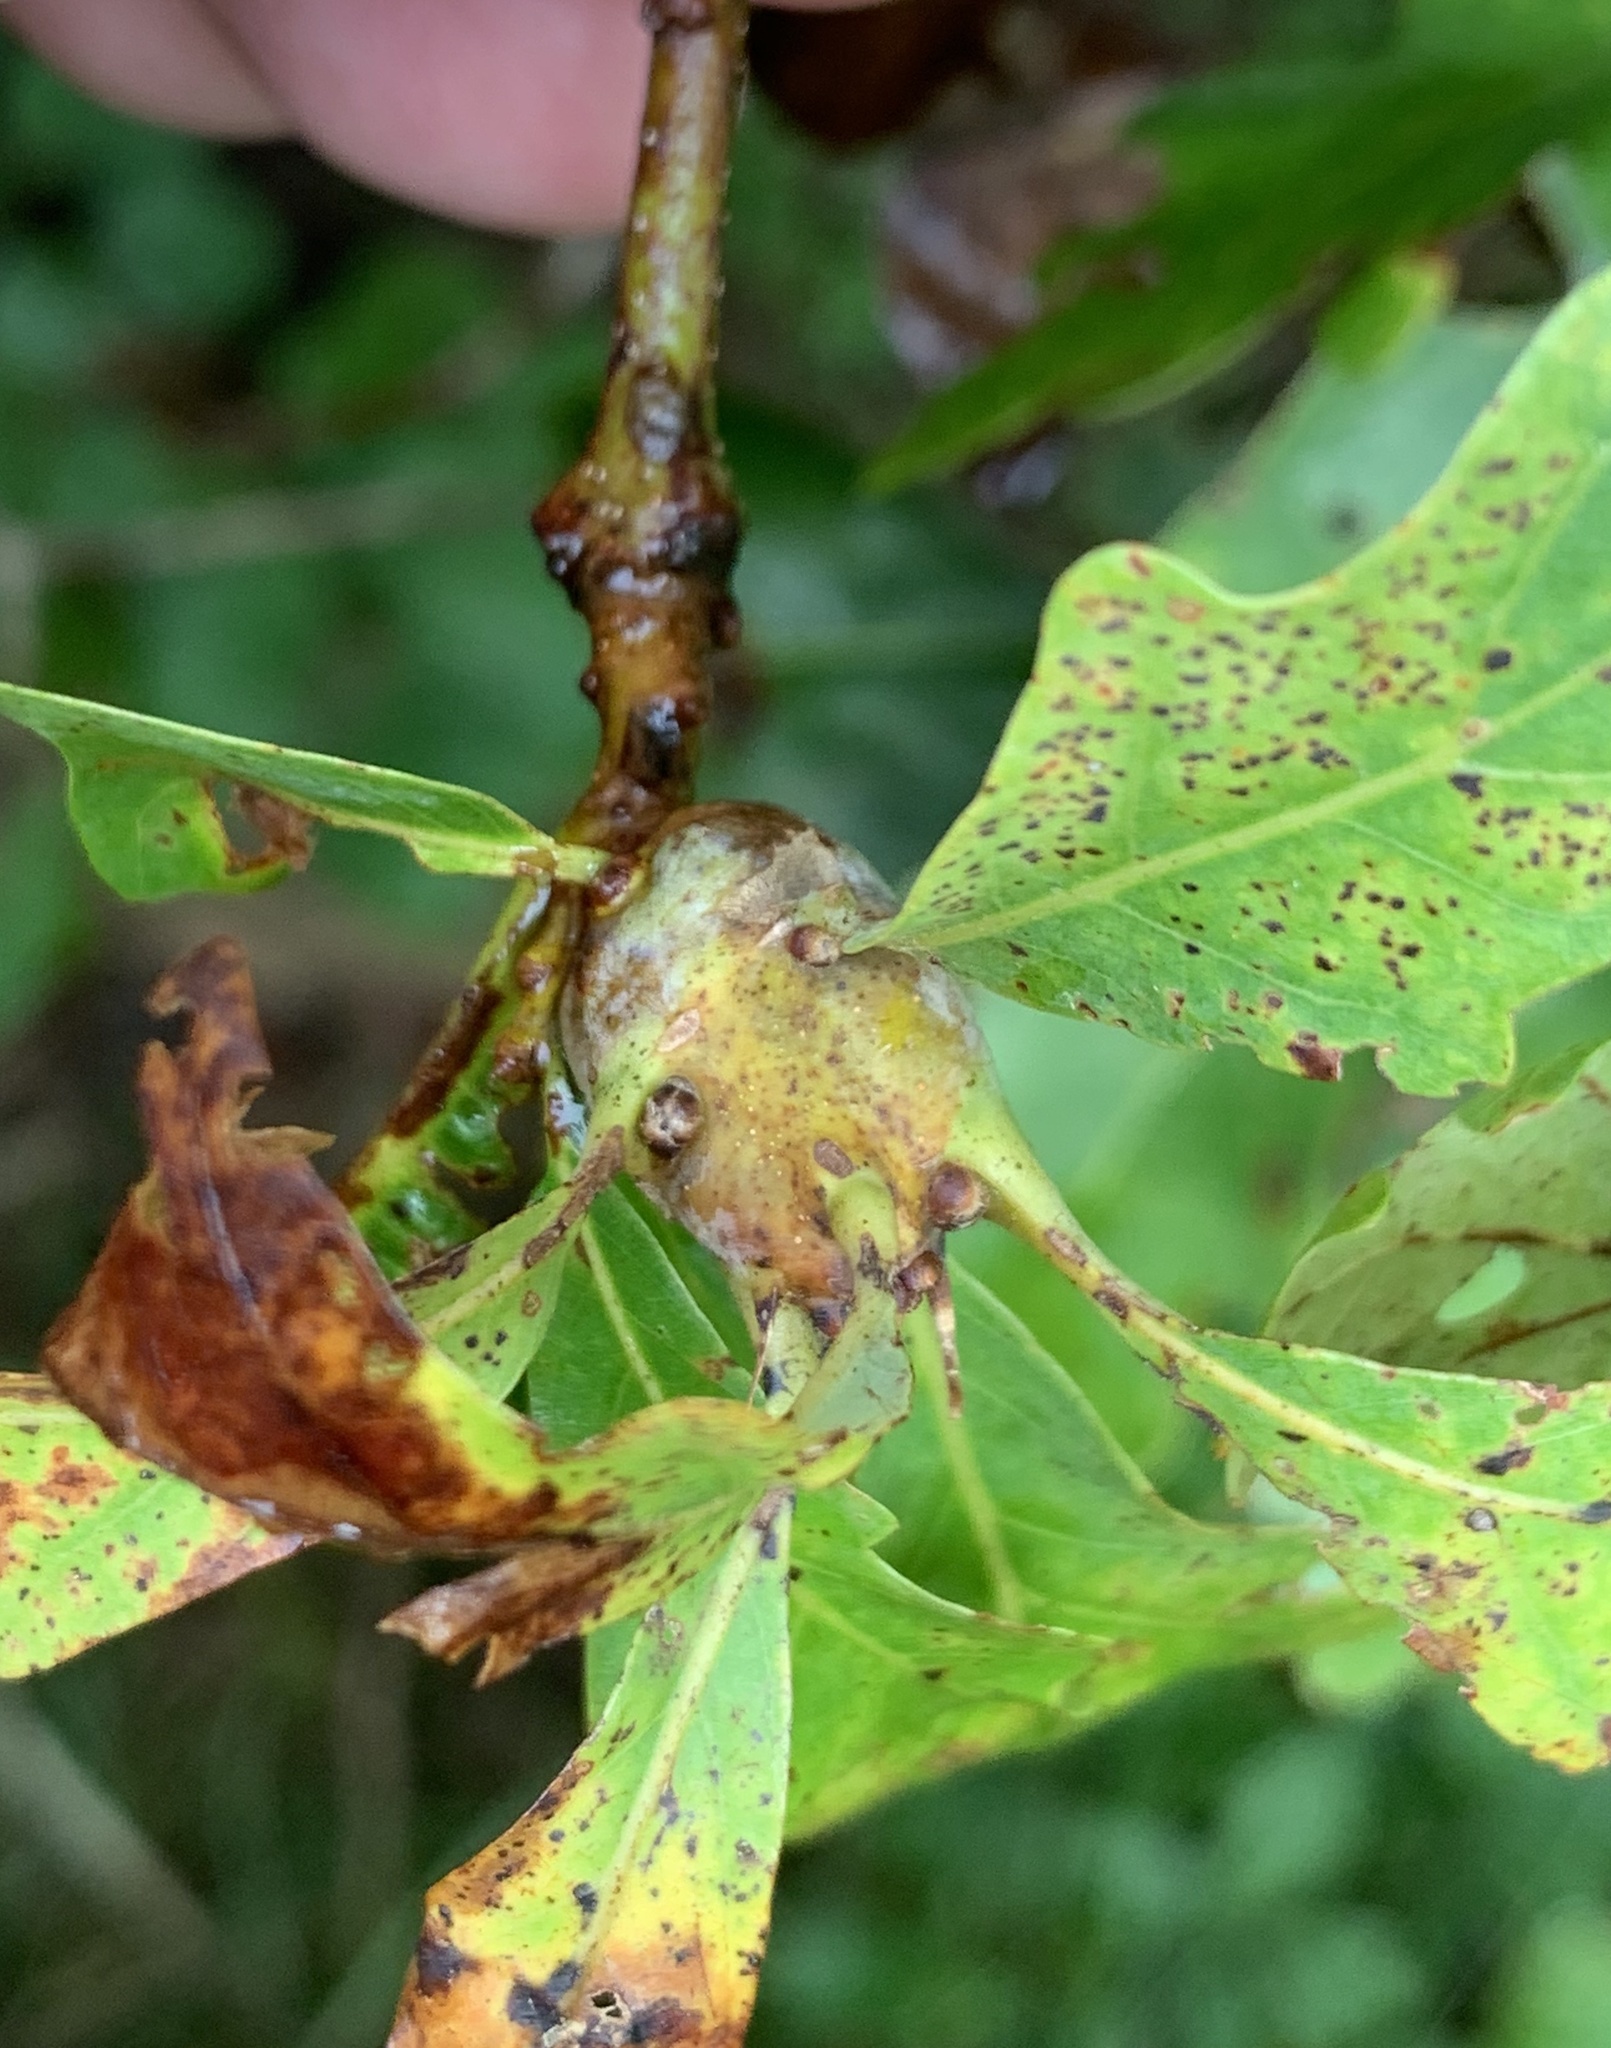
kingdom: Animalia
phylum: Arthropoda
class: Insecta
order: Hymenoptera
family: Cynipidae
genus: Callirhytis
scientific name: Callirhytis clavula
